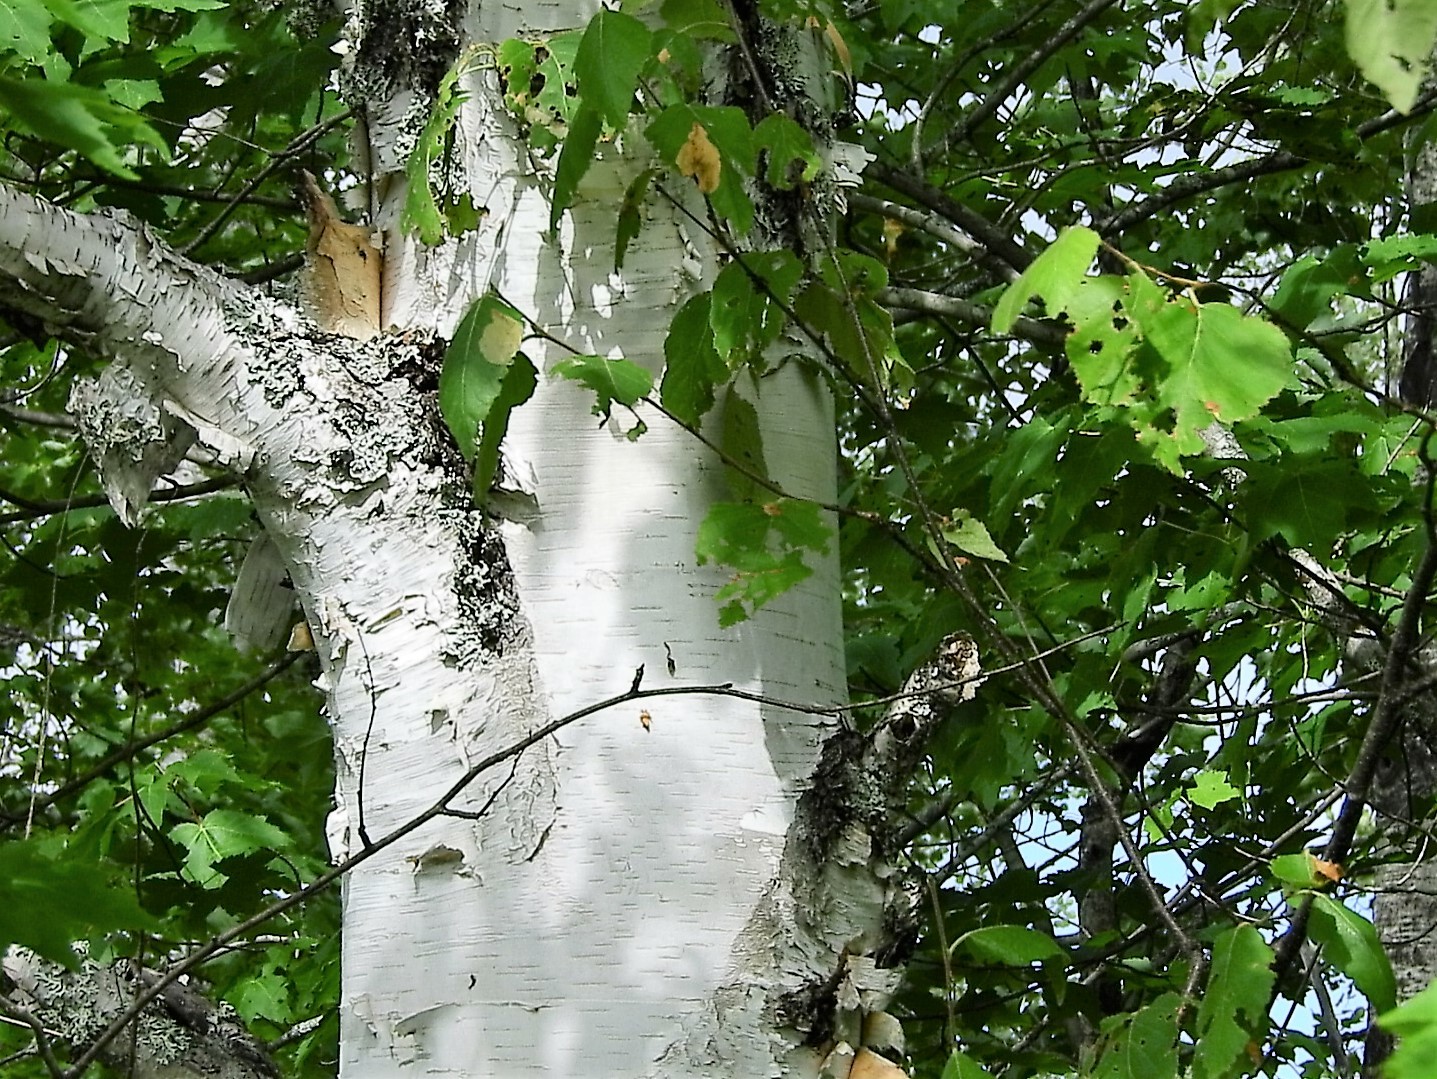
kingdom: Plantae
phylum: Tracheophyta
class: Magnoliopsida
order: Fagales
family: Betulaceae
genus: Betula
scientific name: Betula papyrifera
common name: Paper birch
